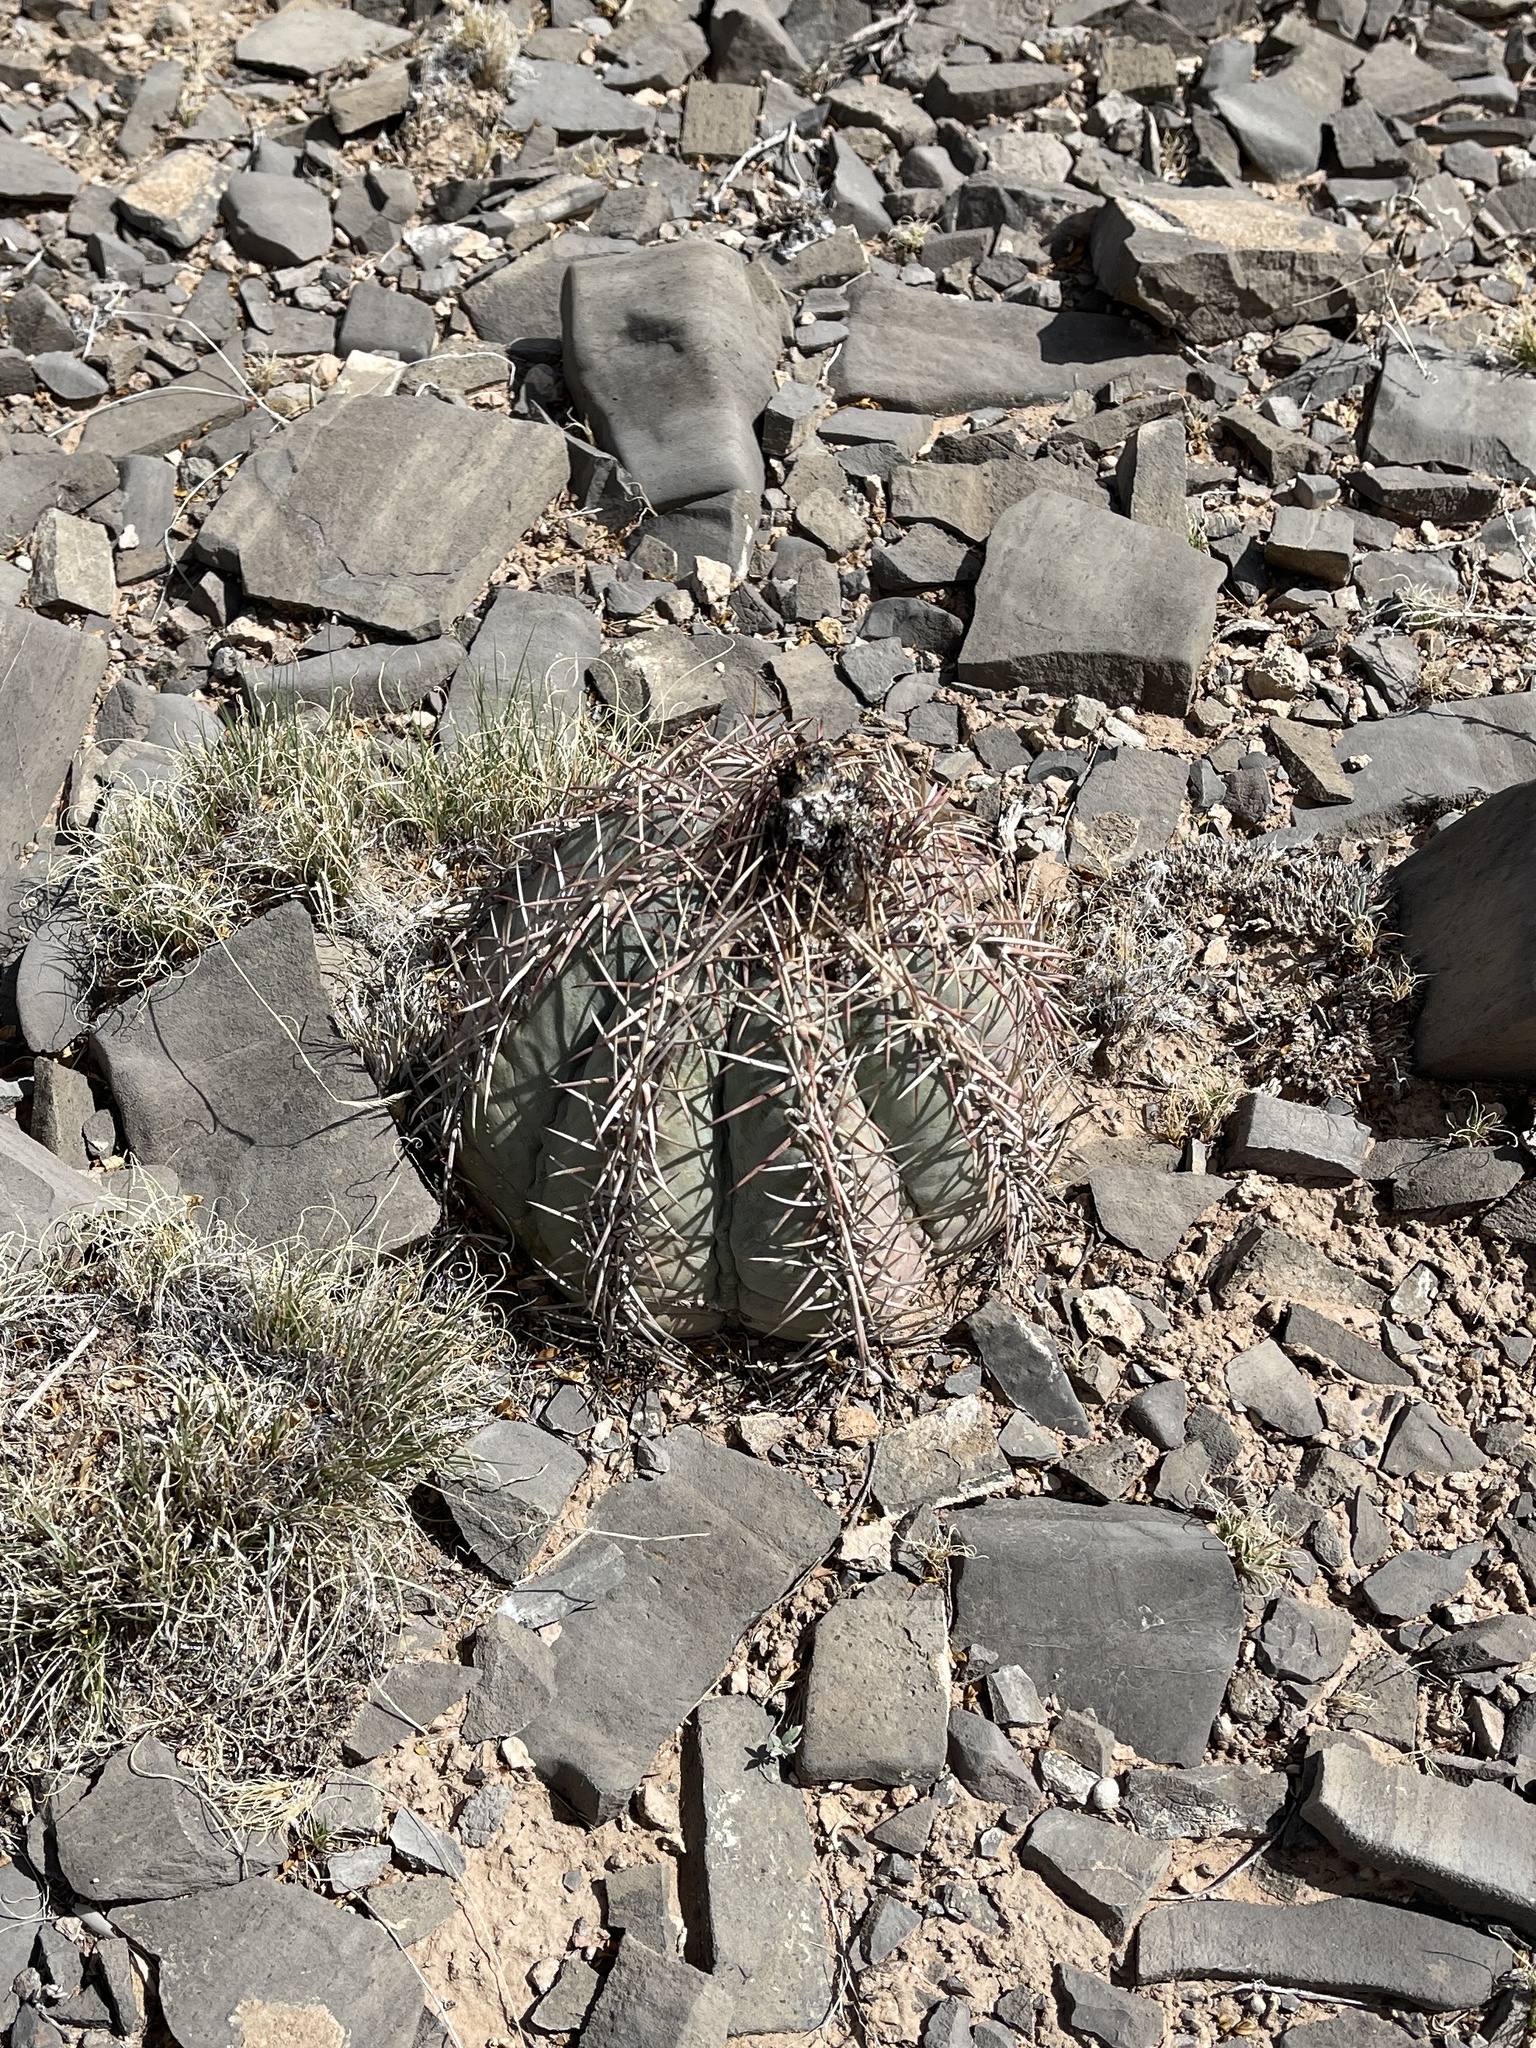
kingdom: Plantae
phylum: Tracheophyta
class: Magnoliopsida
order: Caryophyllales
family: Cactaceae
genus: Echinocactus
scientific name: Echinocactus horizonthalonius
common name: Devilshead
